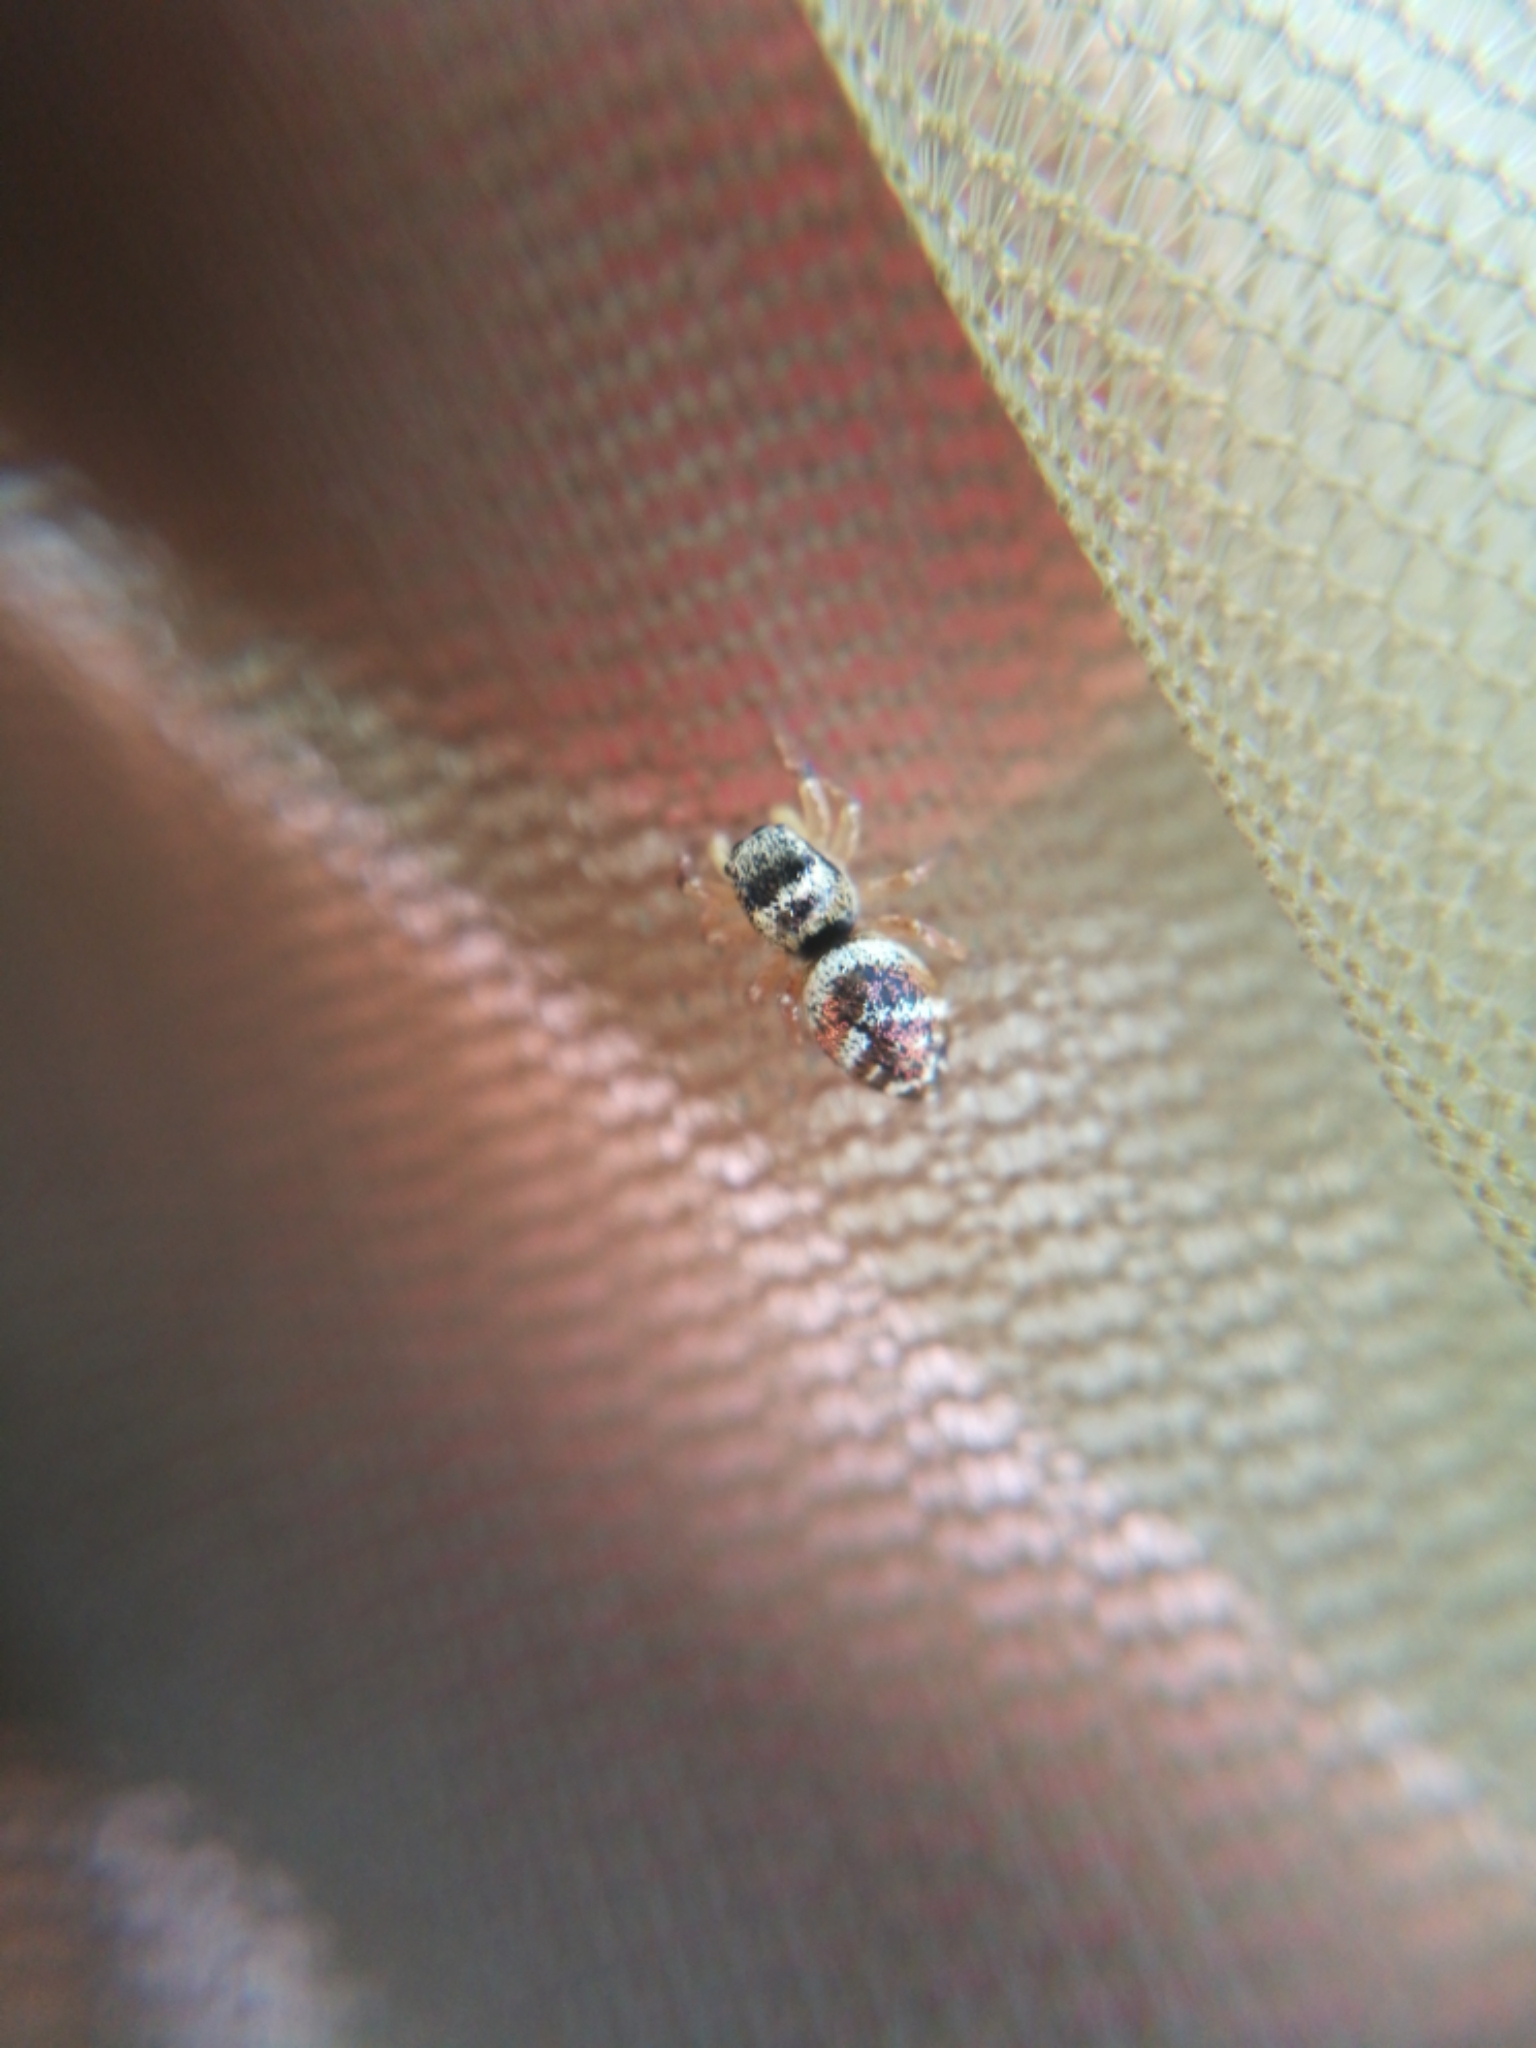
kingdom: Animalia
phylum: Arthropoda
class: Arachnida
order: Araneae
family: Salticidae
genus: Heliophanus
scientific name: Heliophanus tribulosus
